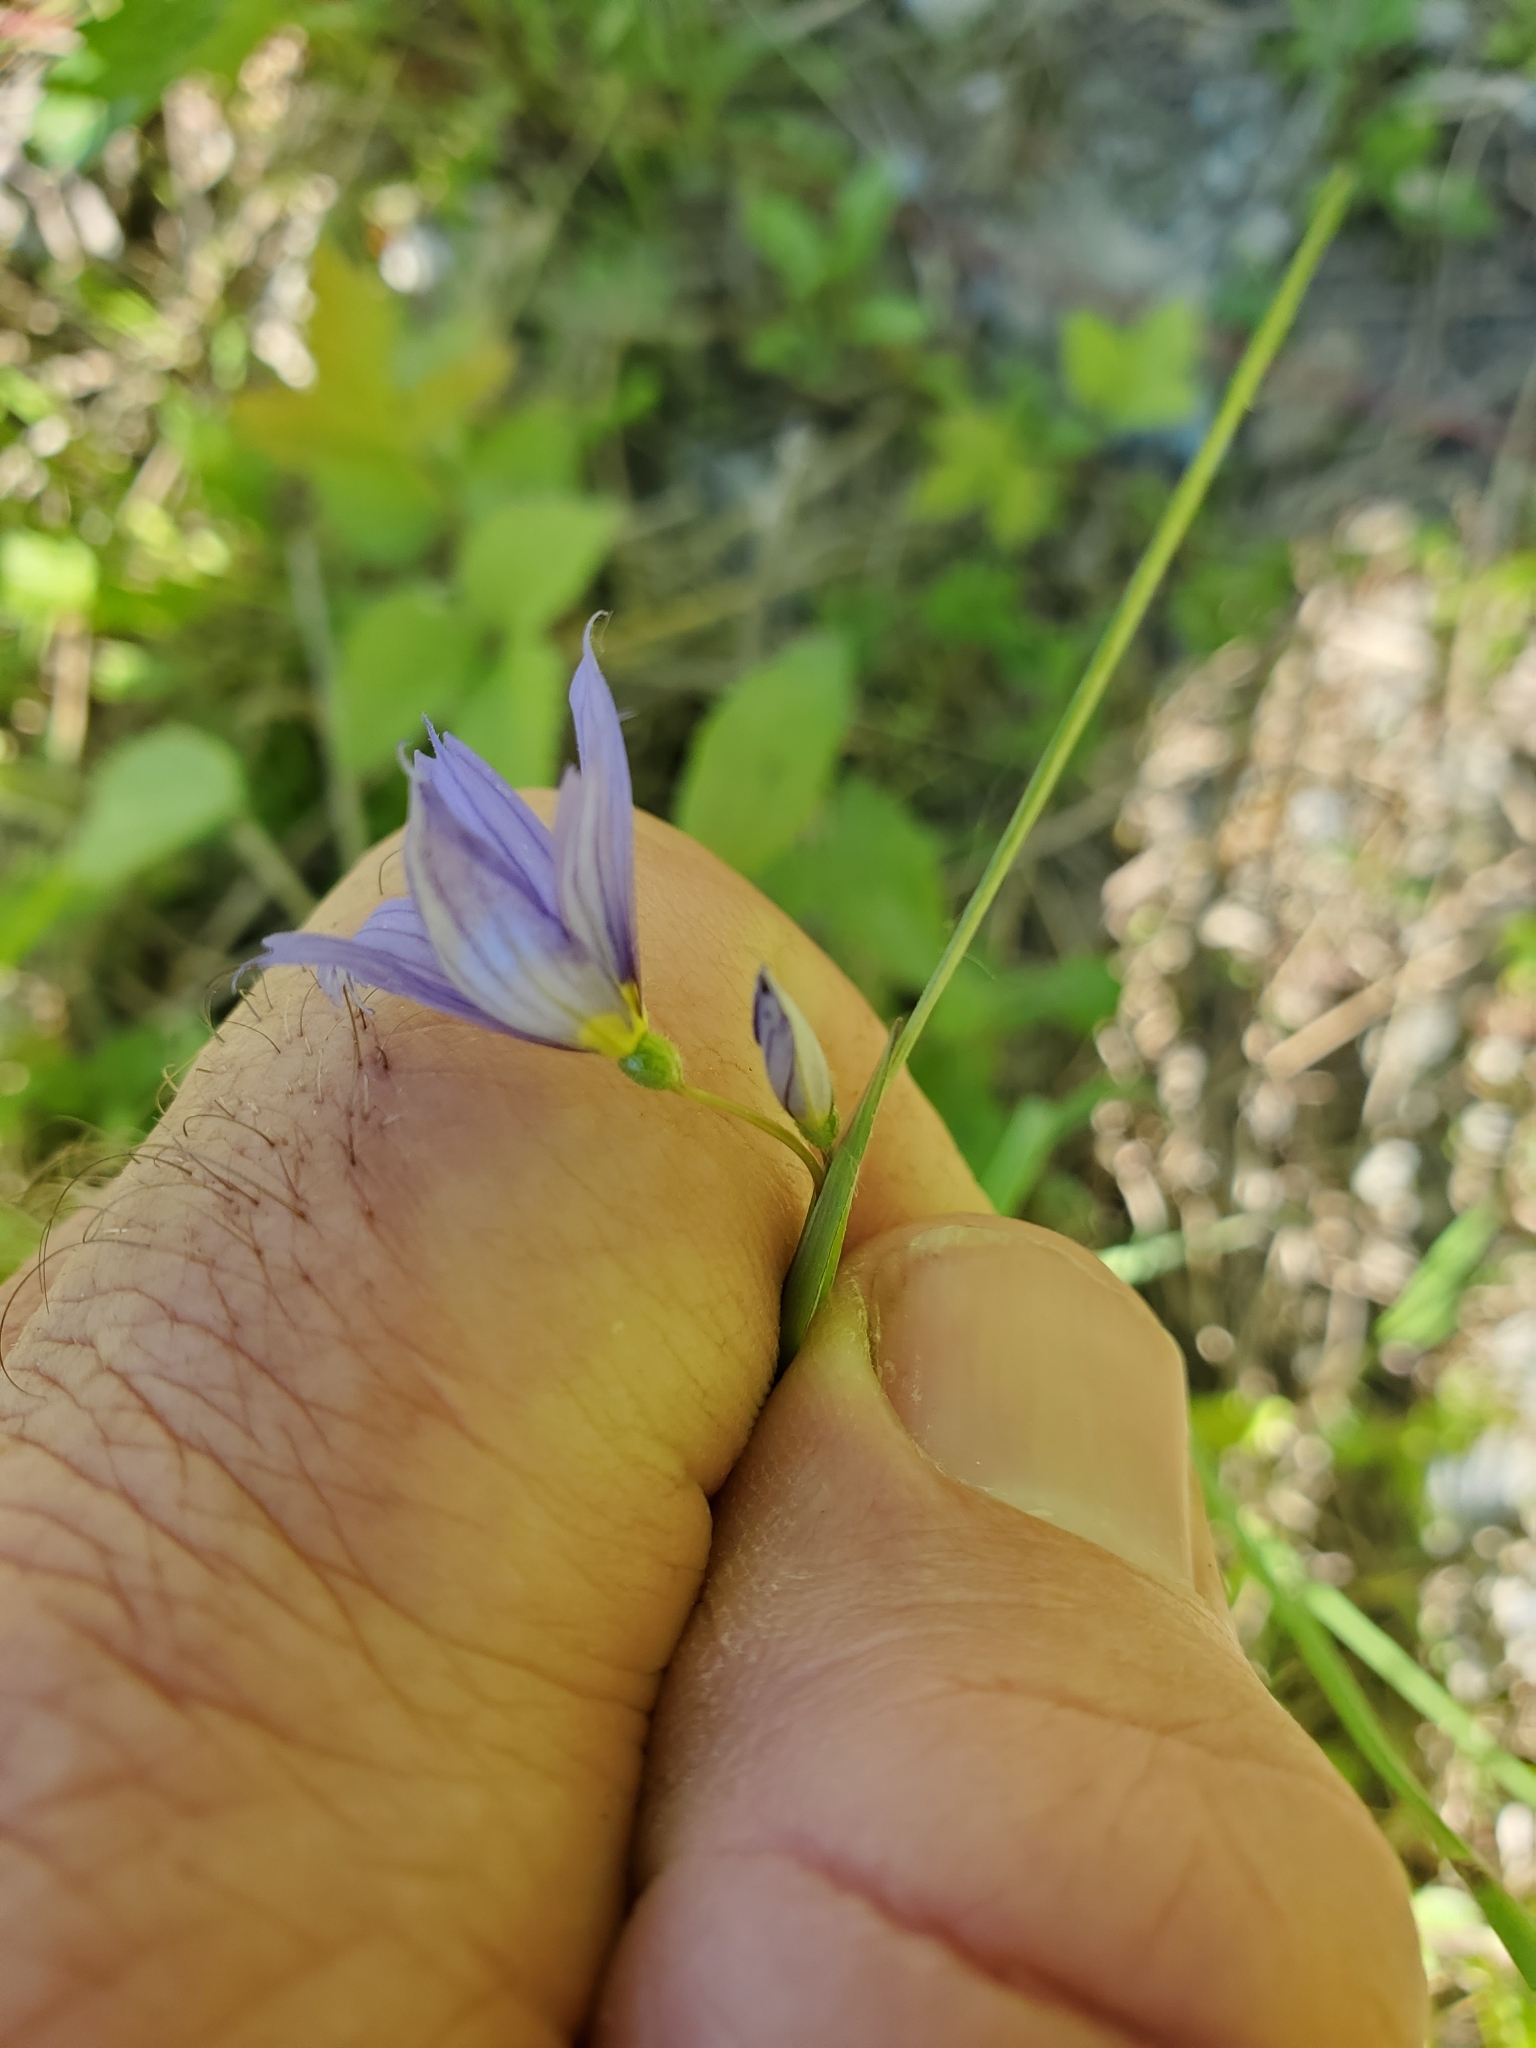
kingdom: Plantae
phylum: Tracheophyta
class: Liliopsida
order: Asparagales
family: Iridaceae
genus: Sisyrinchium
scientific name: Sisyrinchium montanum
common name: American blue-eyed-grass
